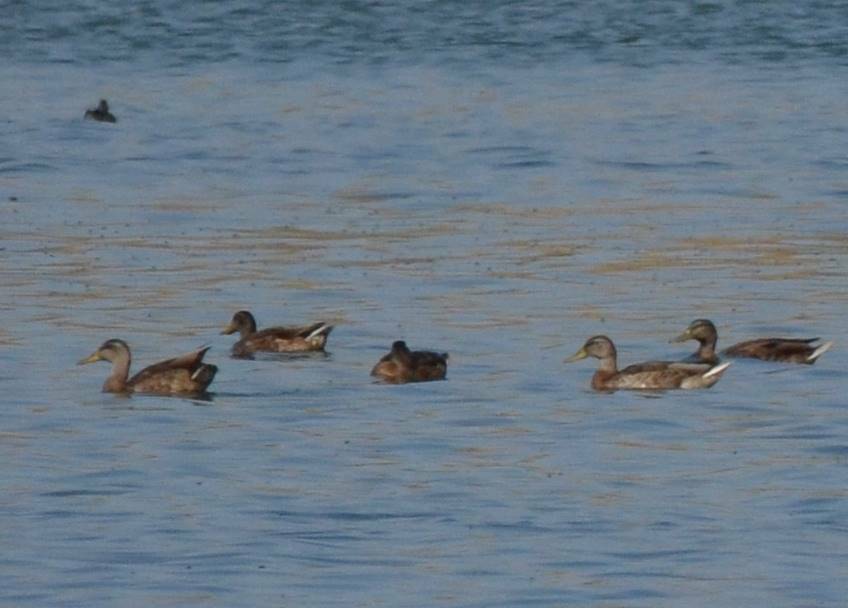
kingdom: Animalia
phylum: Chordata
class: Aves
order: Anseriformes
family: Anatidae
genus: Anas
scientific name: Anas platyrhynchos
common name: Mallard
